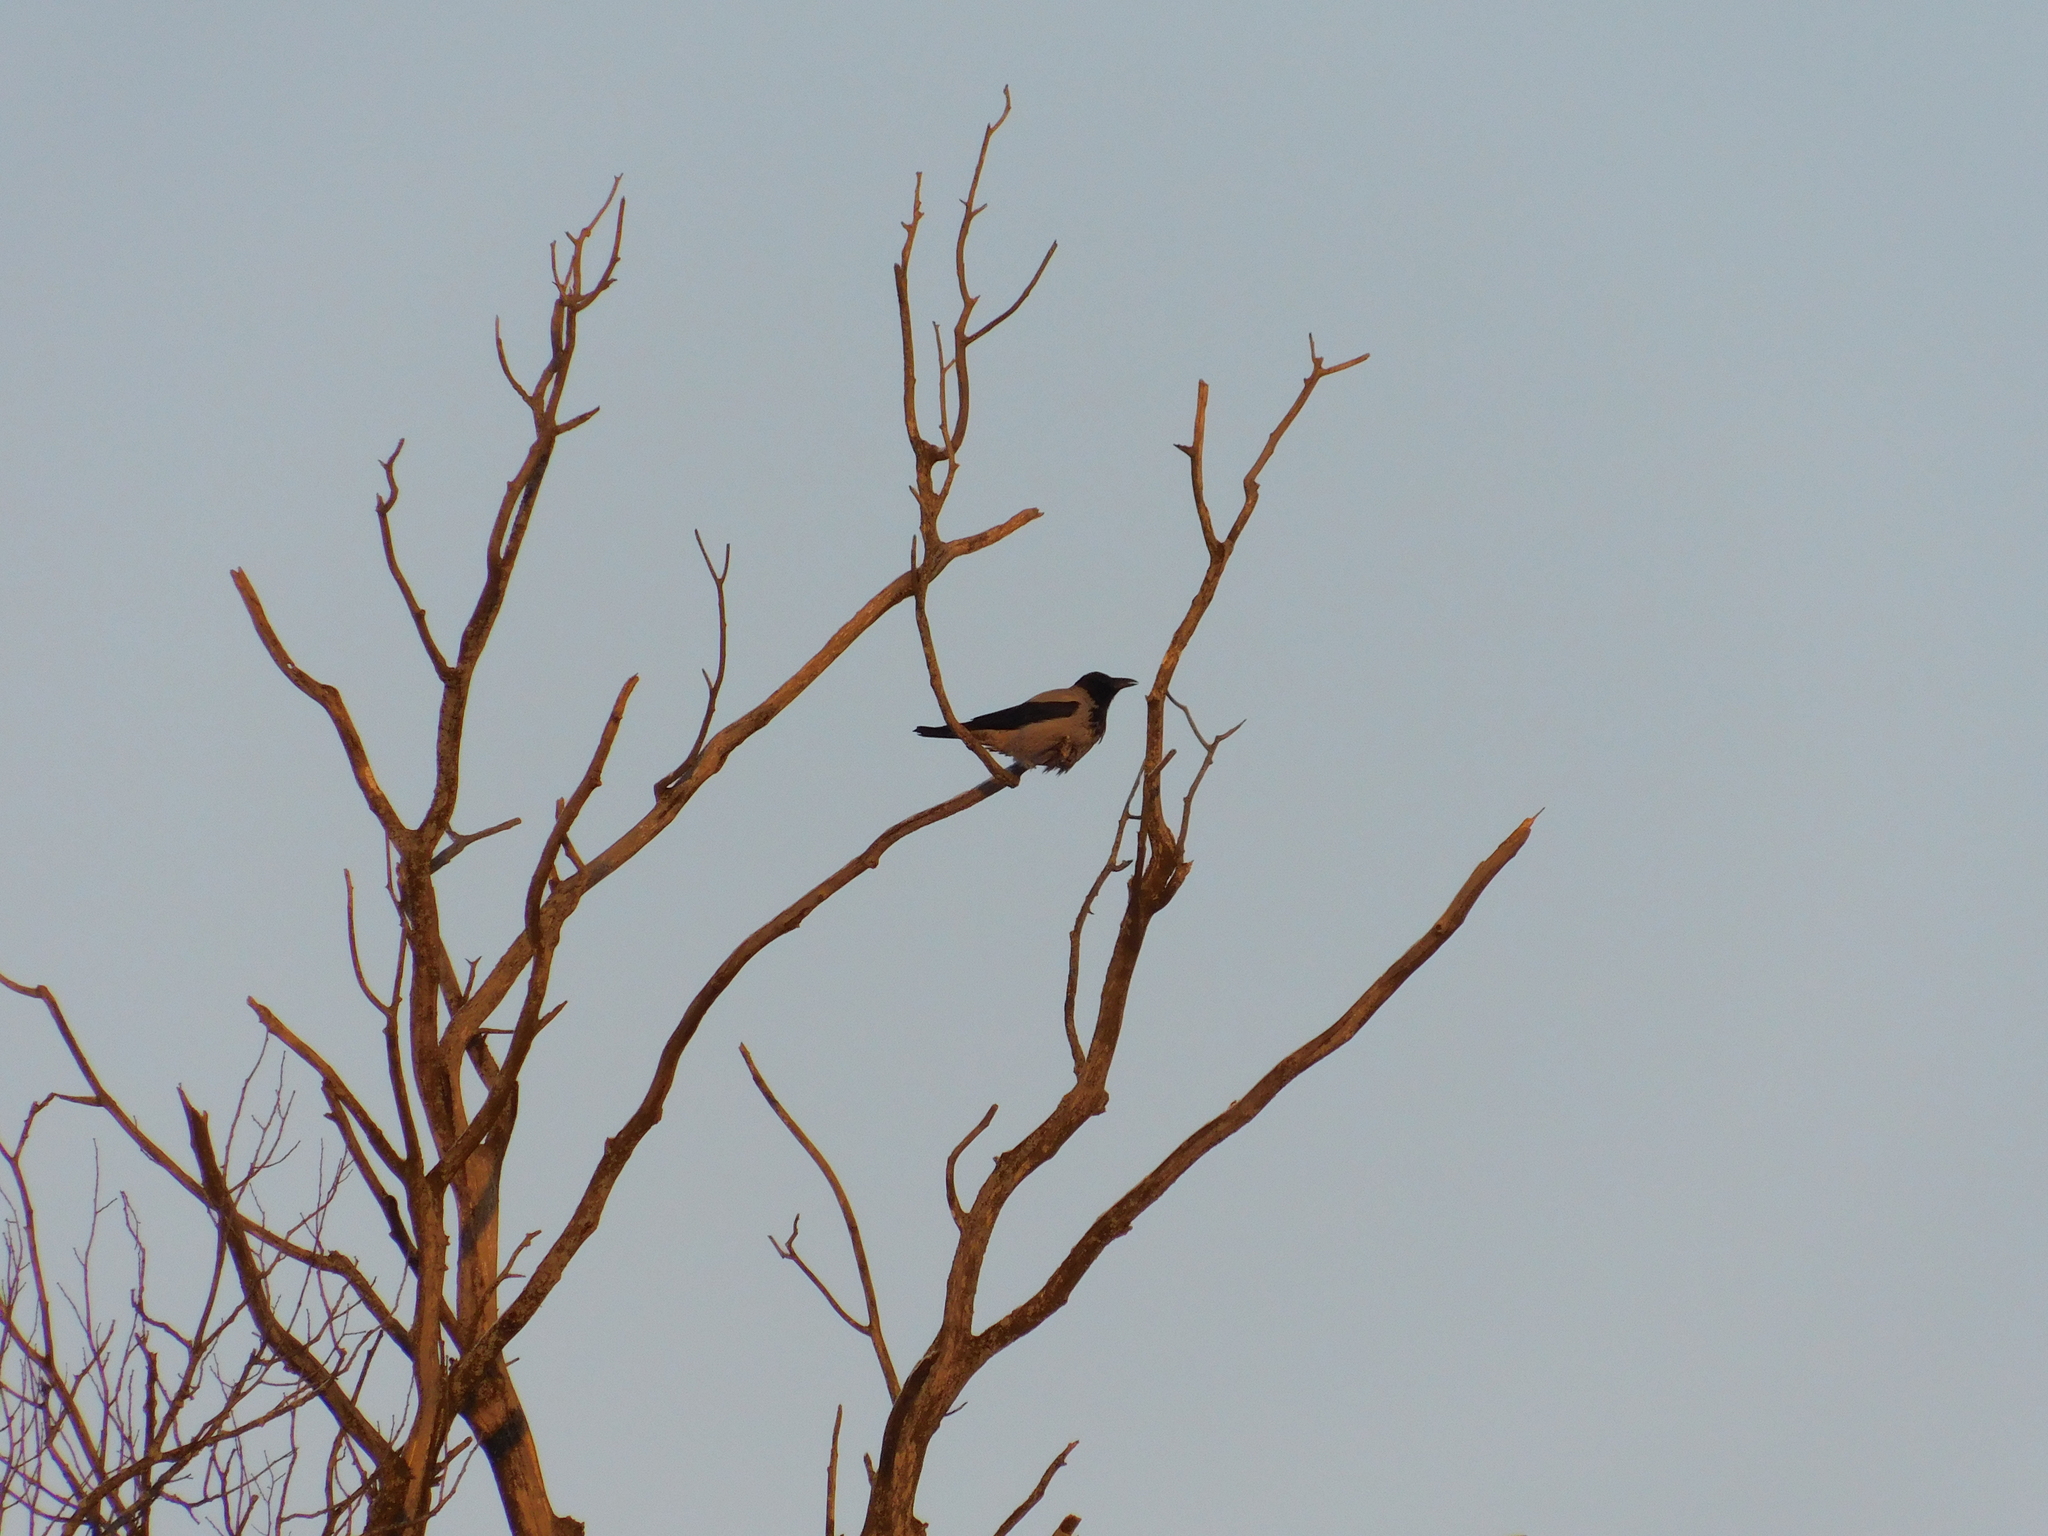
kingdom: Animalia
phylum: Chordata
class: Aves
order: Passeriformes
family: Corvidae
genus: Corvus
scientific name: Corvus cornix
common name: Hooded crow
